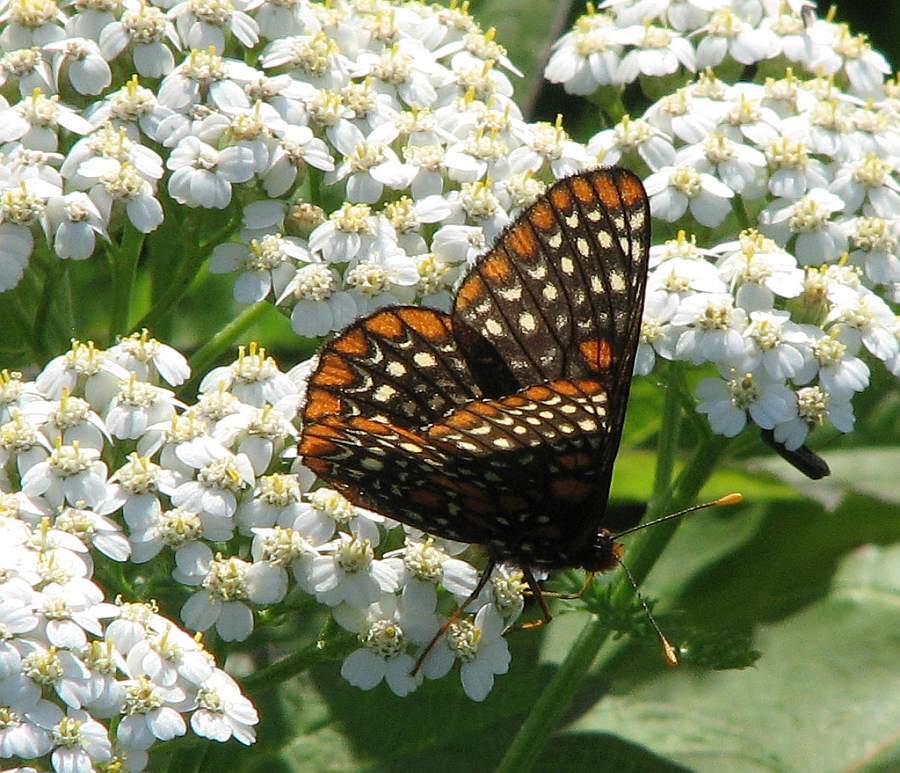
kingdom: Animalia
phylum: Arthropoda
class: Insecta
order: Lepidoptera
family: Nymphalidae
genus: Euphydryas
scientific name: Euphydryas phaeton
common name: Baltimore checkerspot
